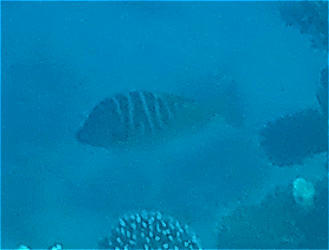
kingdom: Animalia
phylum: Chordata
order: Perciformes
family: Lethrinidae
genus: Lethrinus
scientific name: Lethrinus mahsena
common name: Sky emperor
